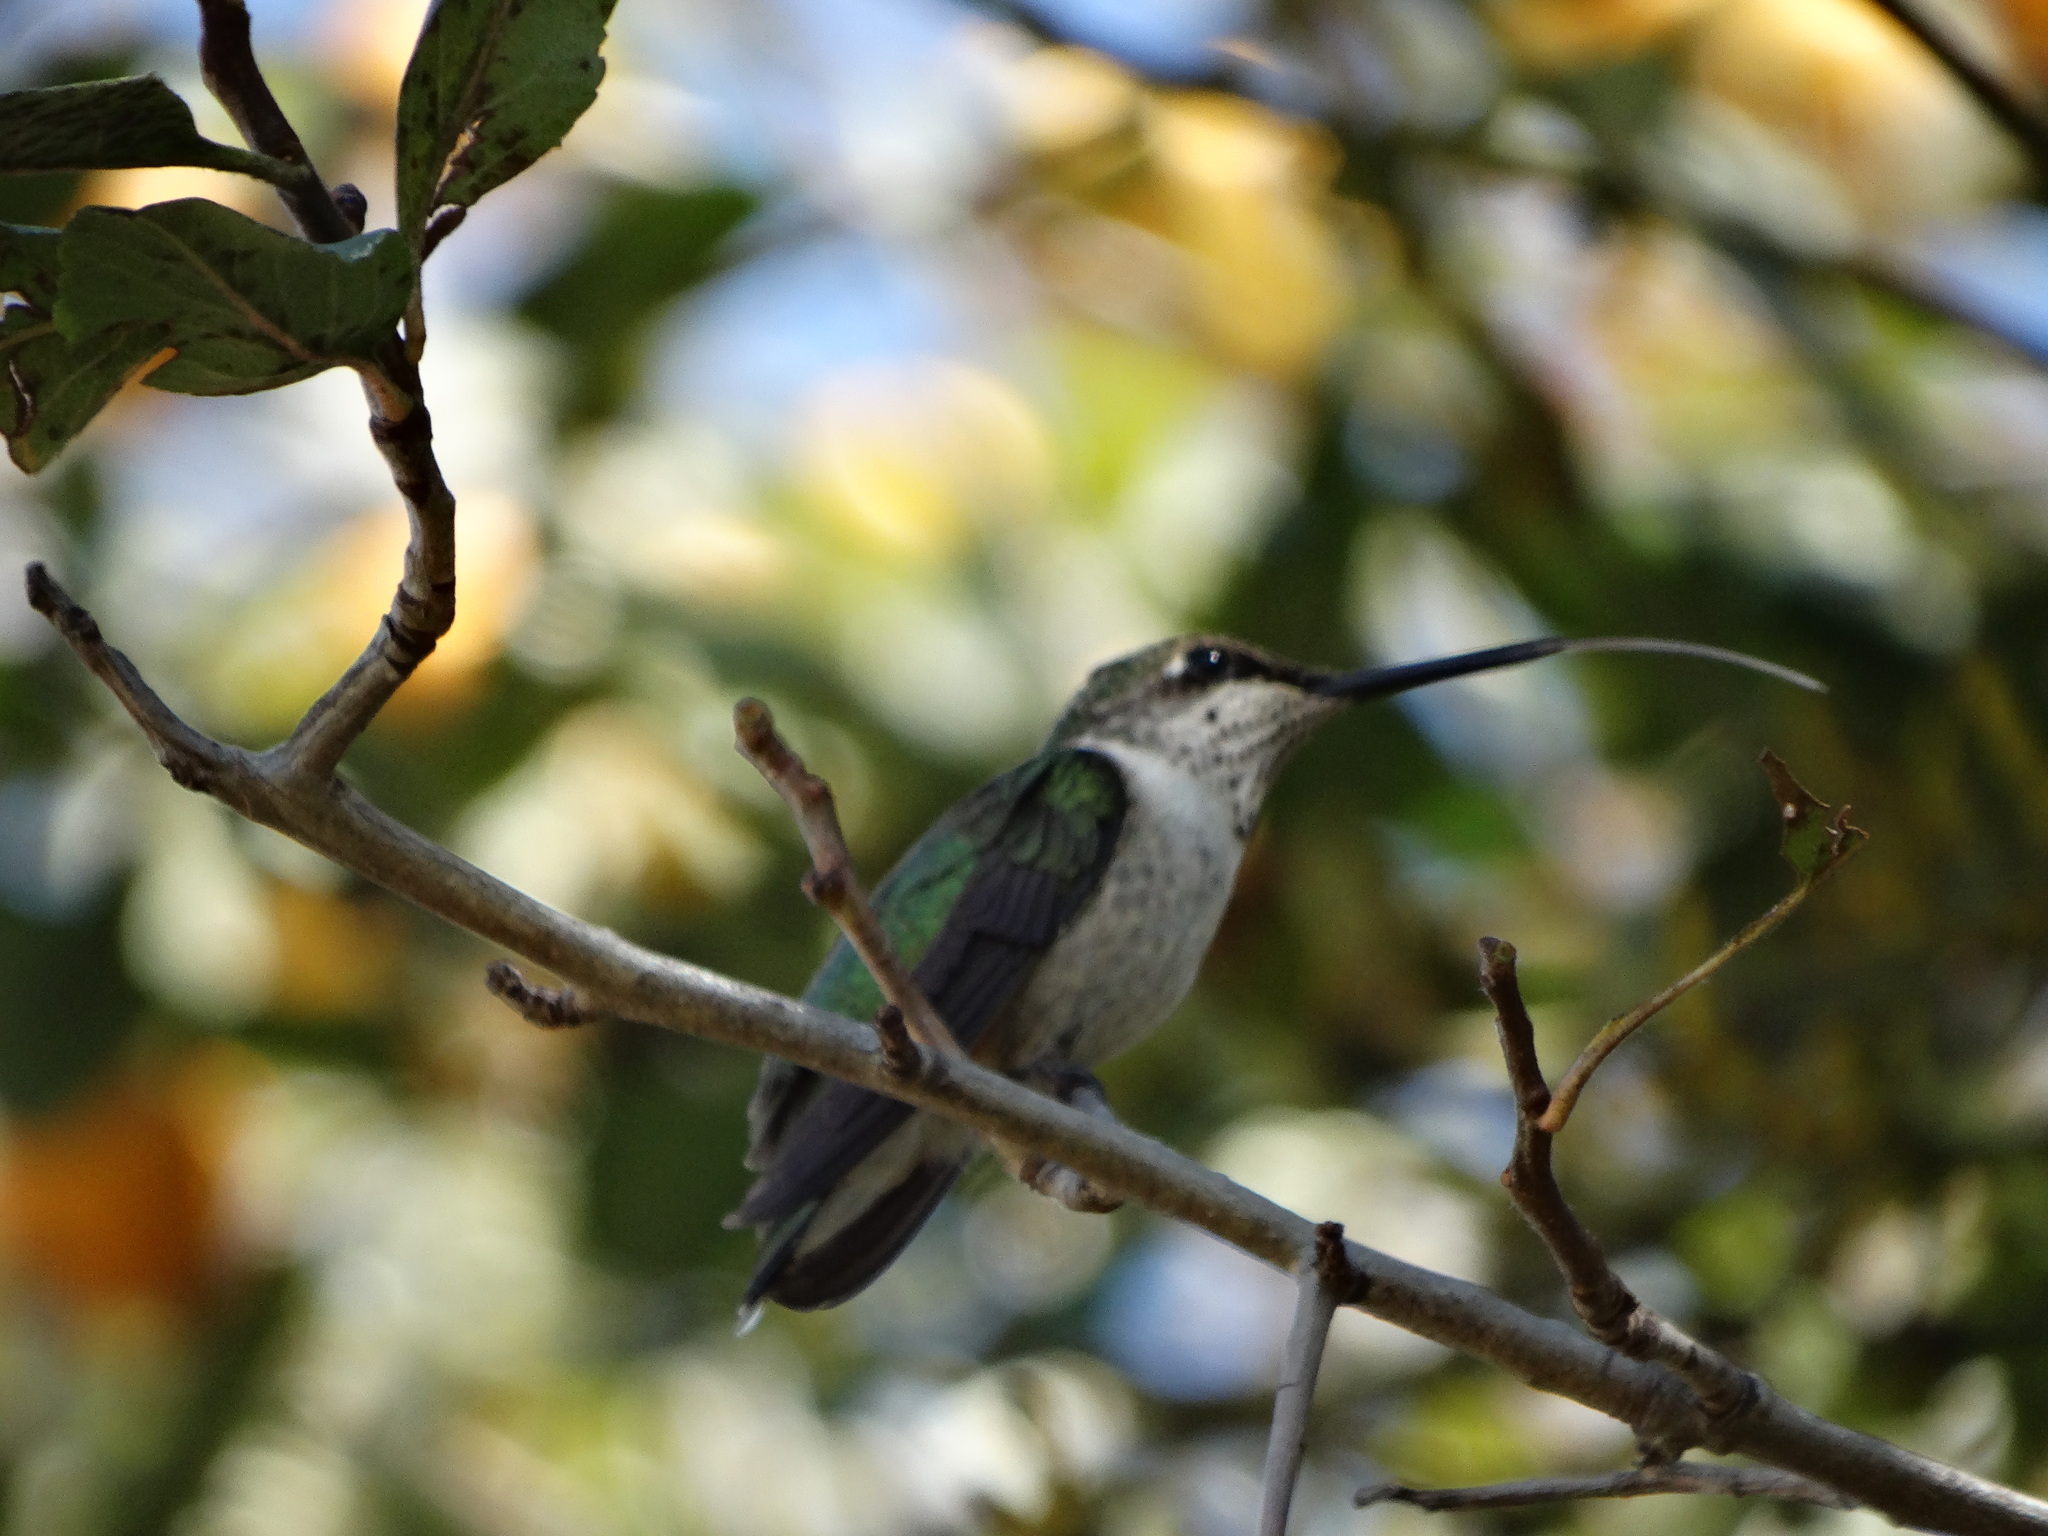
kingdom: Animalia
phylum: Chordata
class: Aves
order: Apodiformes
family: Trochilidae
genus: Archilochus
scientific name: Archilochus colubris
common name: Ruby-throated hummingbird
